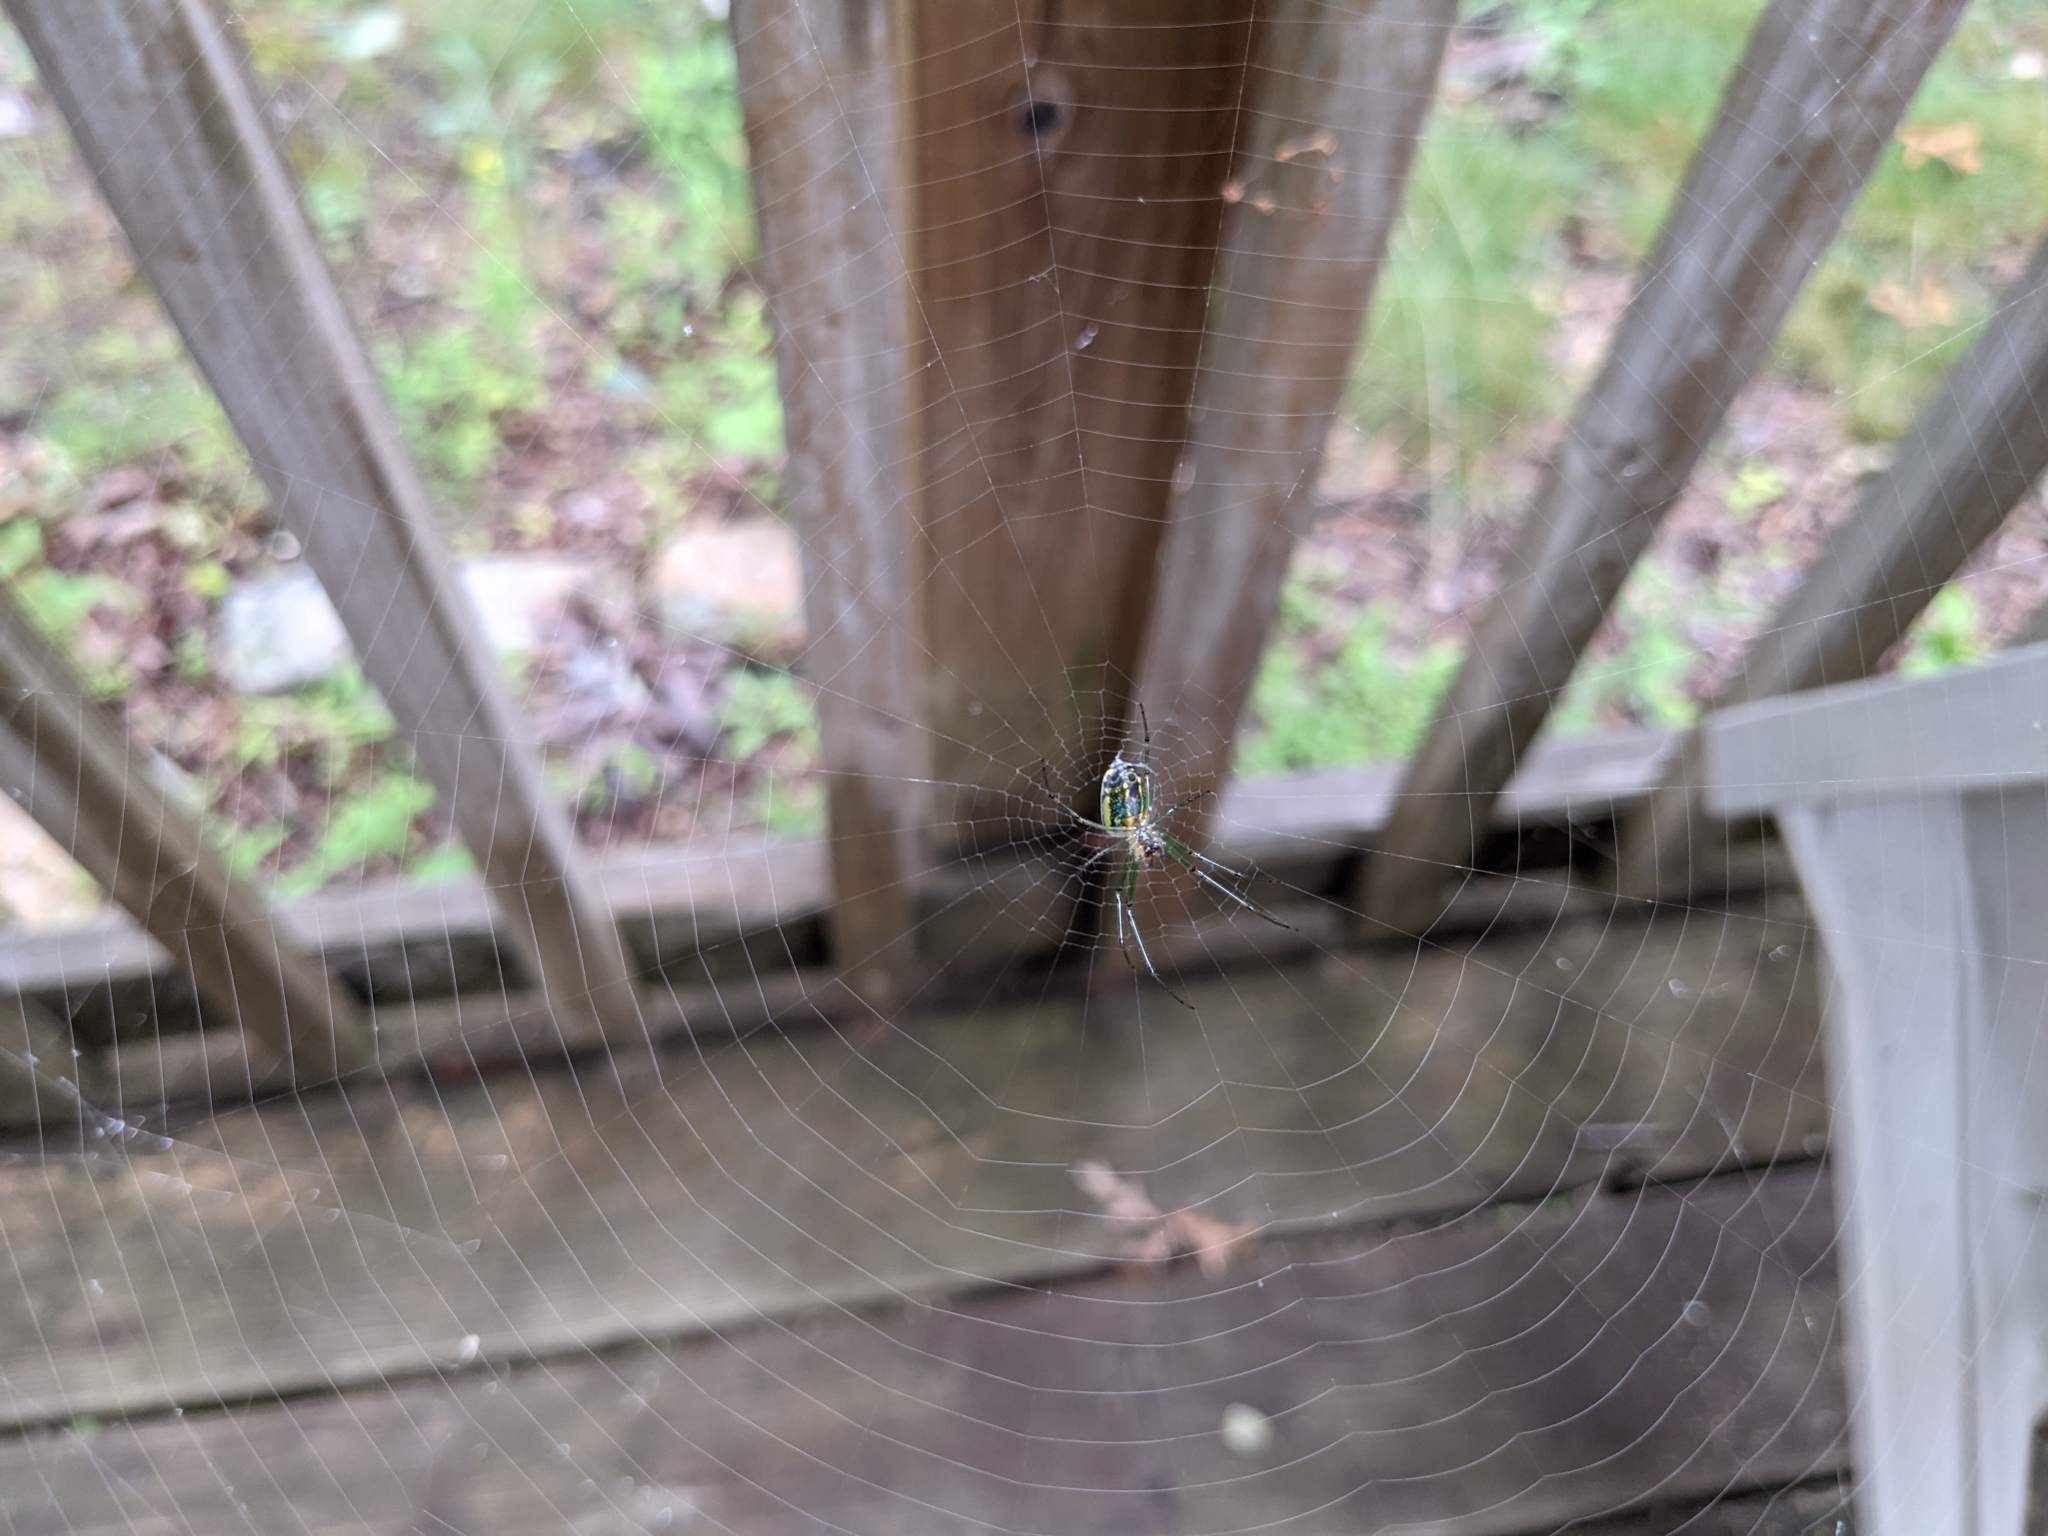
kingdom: Animalia
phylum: Arthropoda
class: Arachnida
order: Araneae
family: Tetragnathidae
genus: Leucauge
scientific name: Leucauge venusta
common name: Longjawed orb weavers
